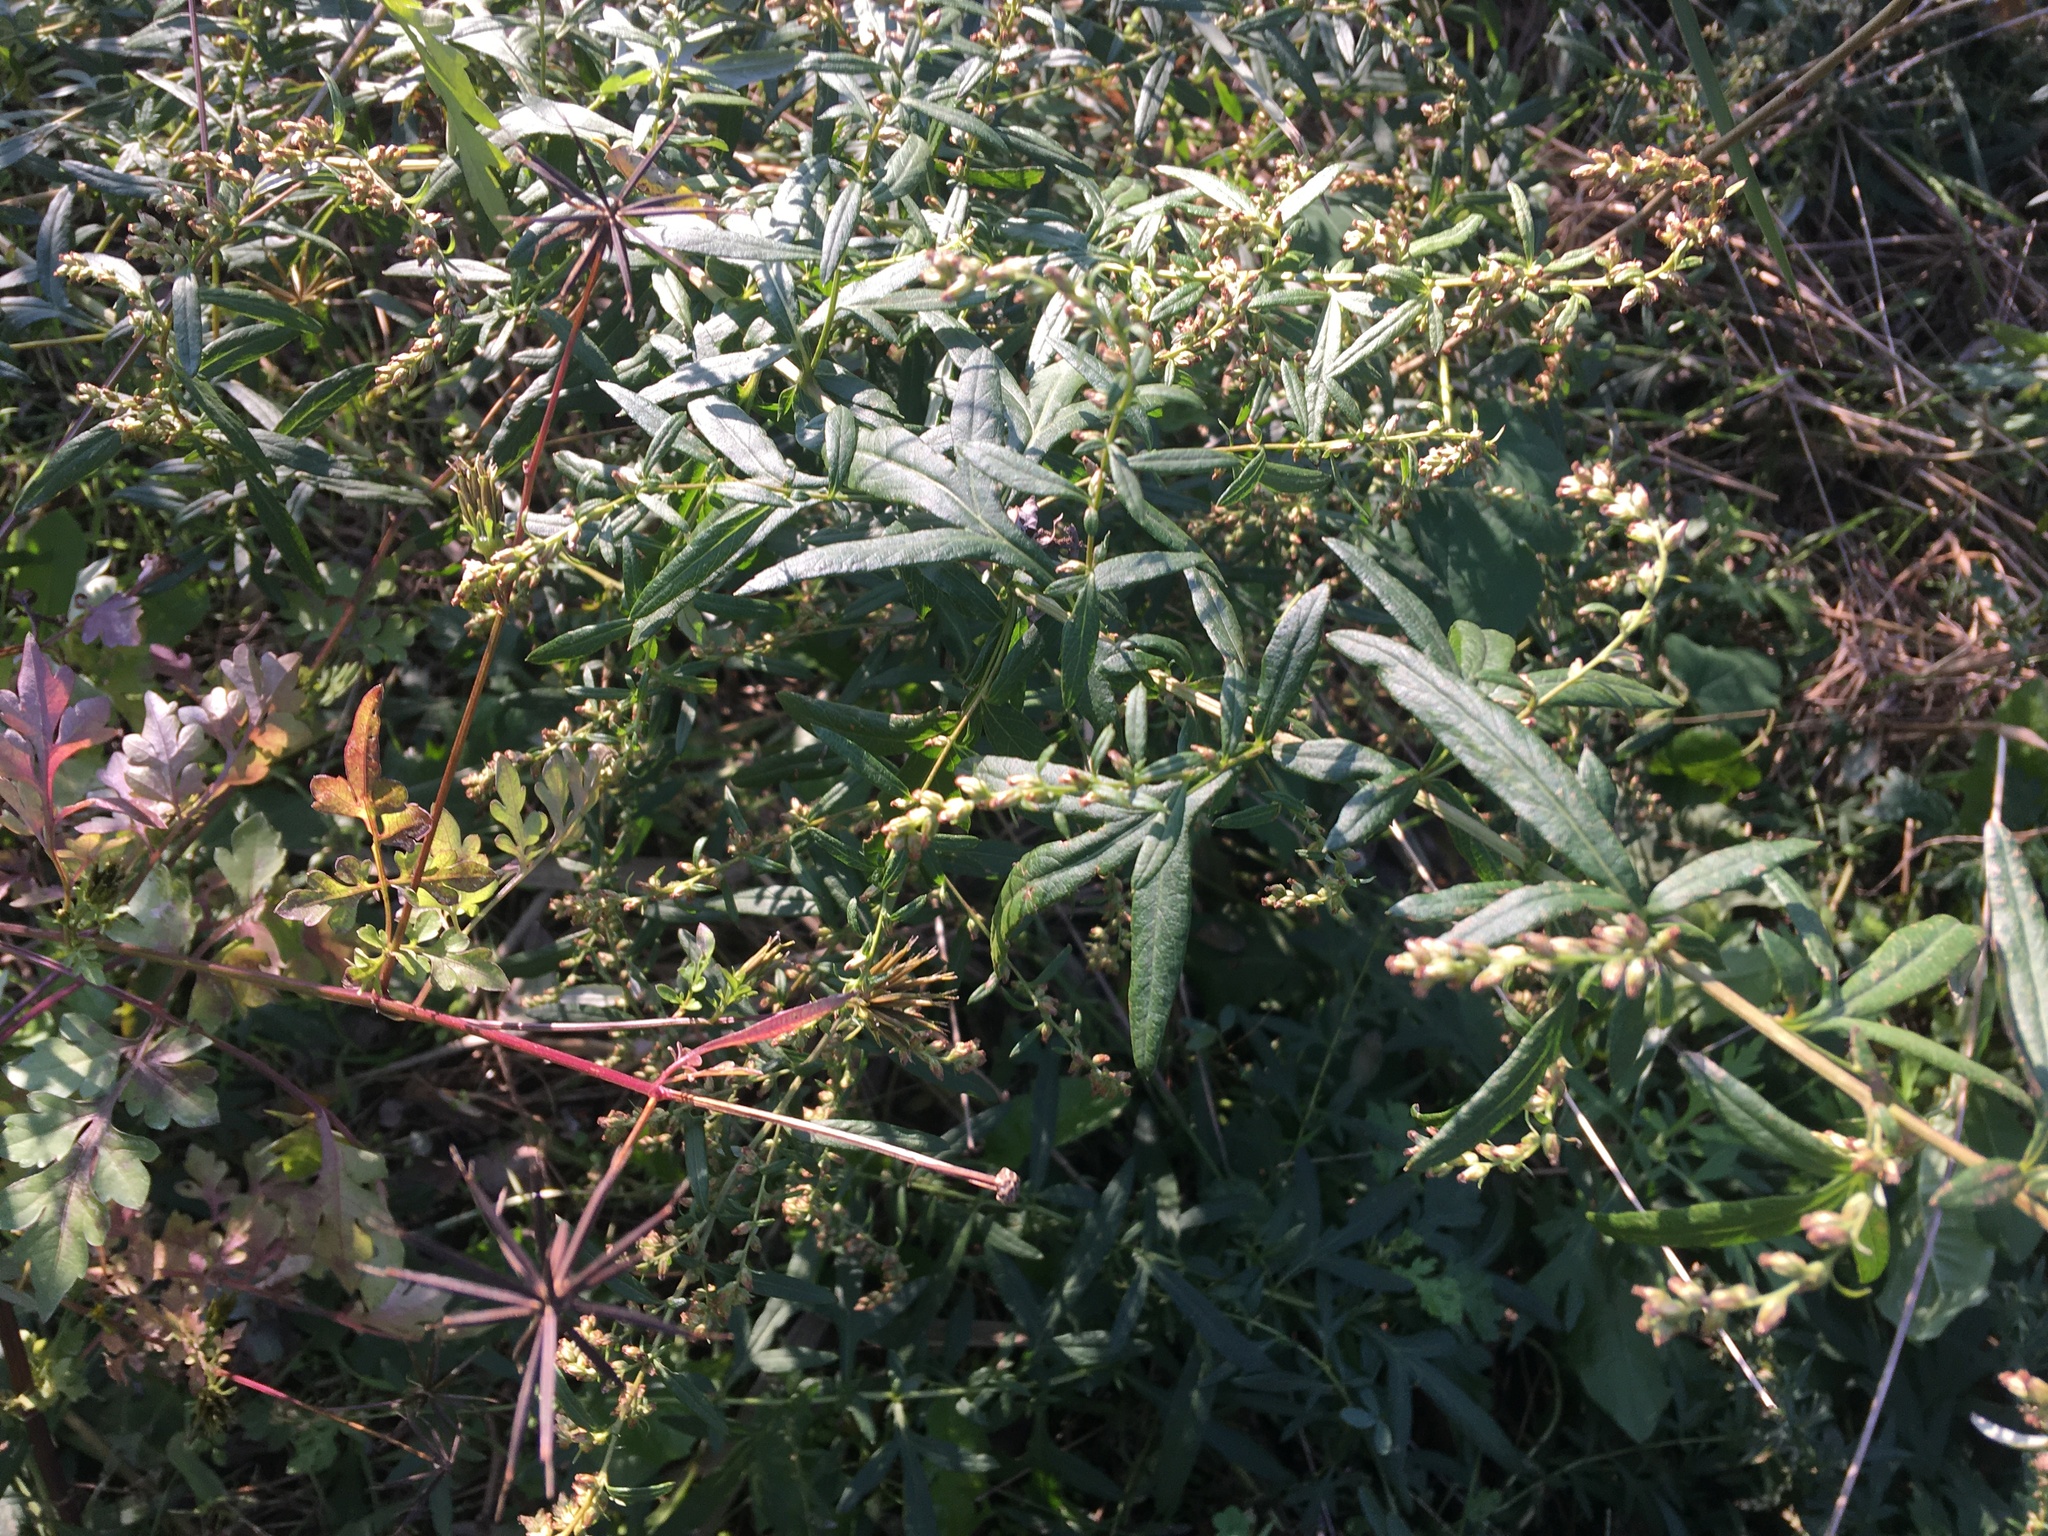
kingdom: Plantae
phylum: Tracheophyta
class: Magnoliopsida
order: Asterales
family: Asteraceae
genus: Artemisia
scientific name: Artemisia vulgaris
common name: Mugwort
